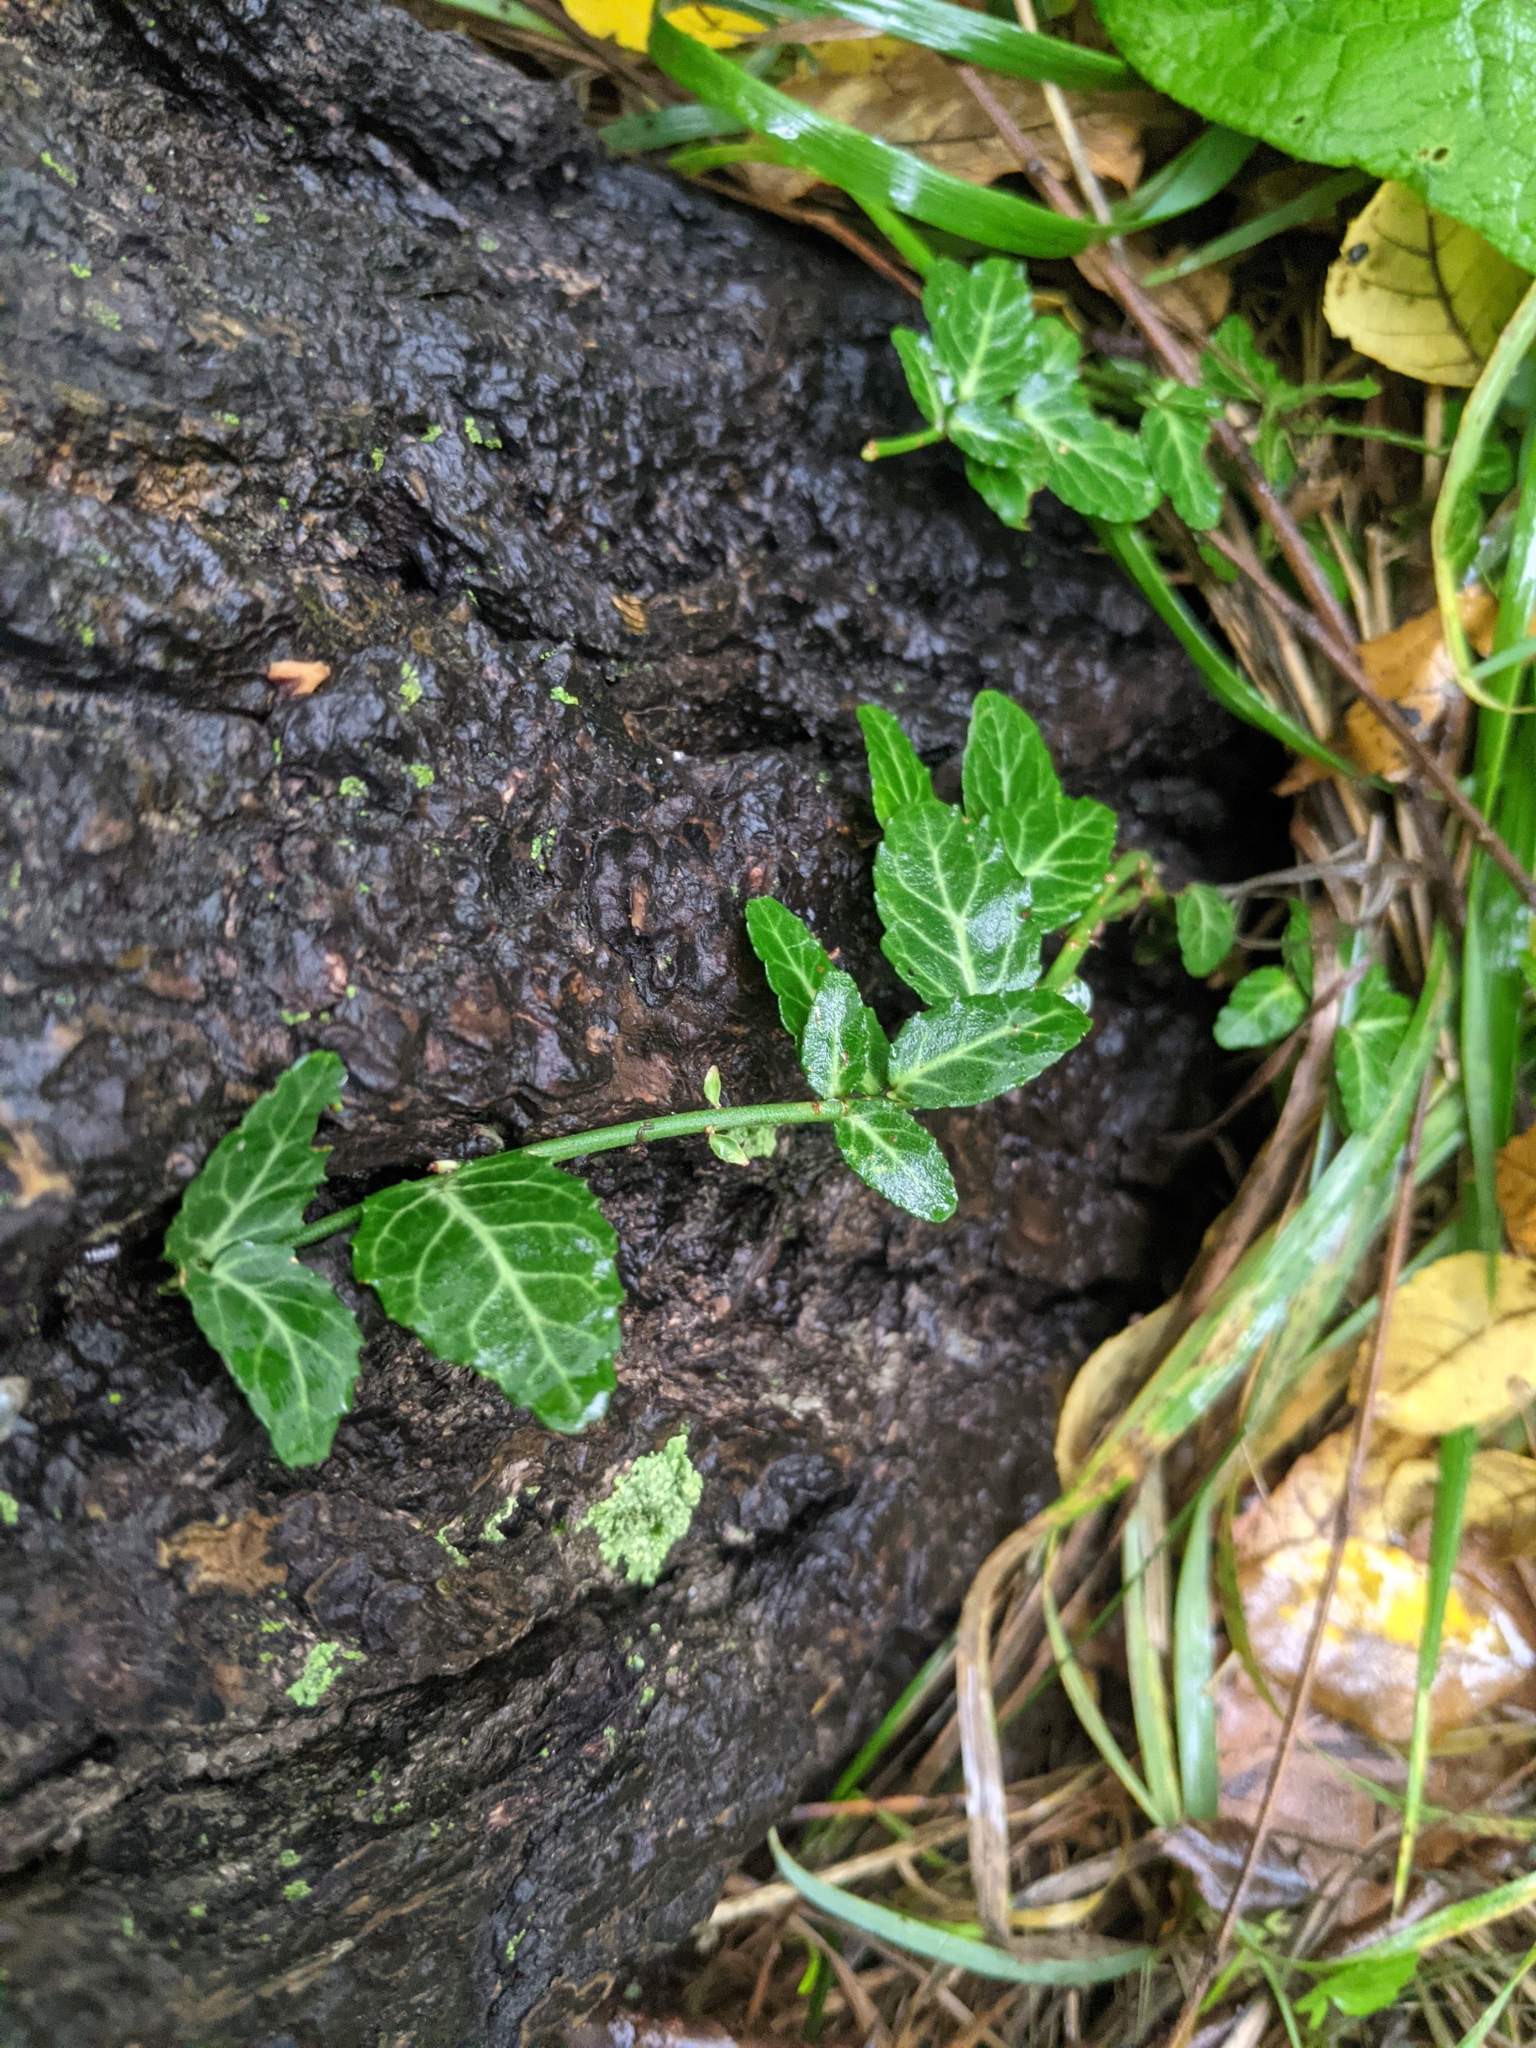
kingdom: Plantae
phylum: Tracheophyta
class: Magnoliopsida
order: Celastrales
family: Celastraceae
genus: Euonymus
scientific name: Euonymus fortunei
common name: Climbing euonymus
